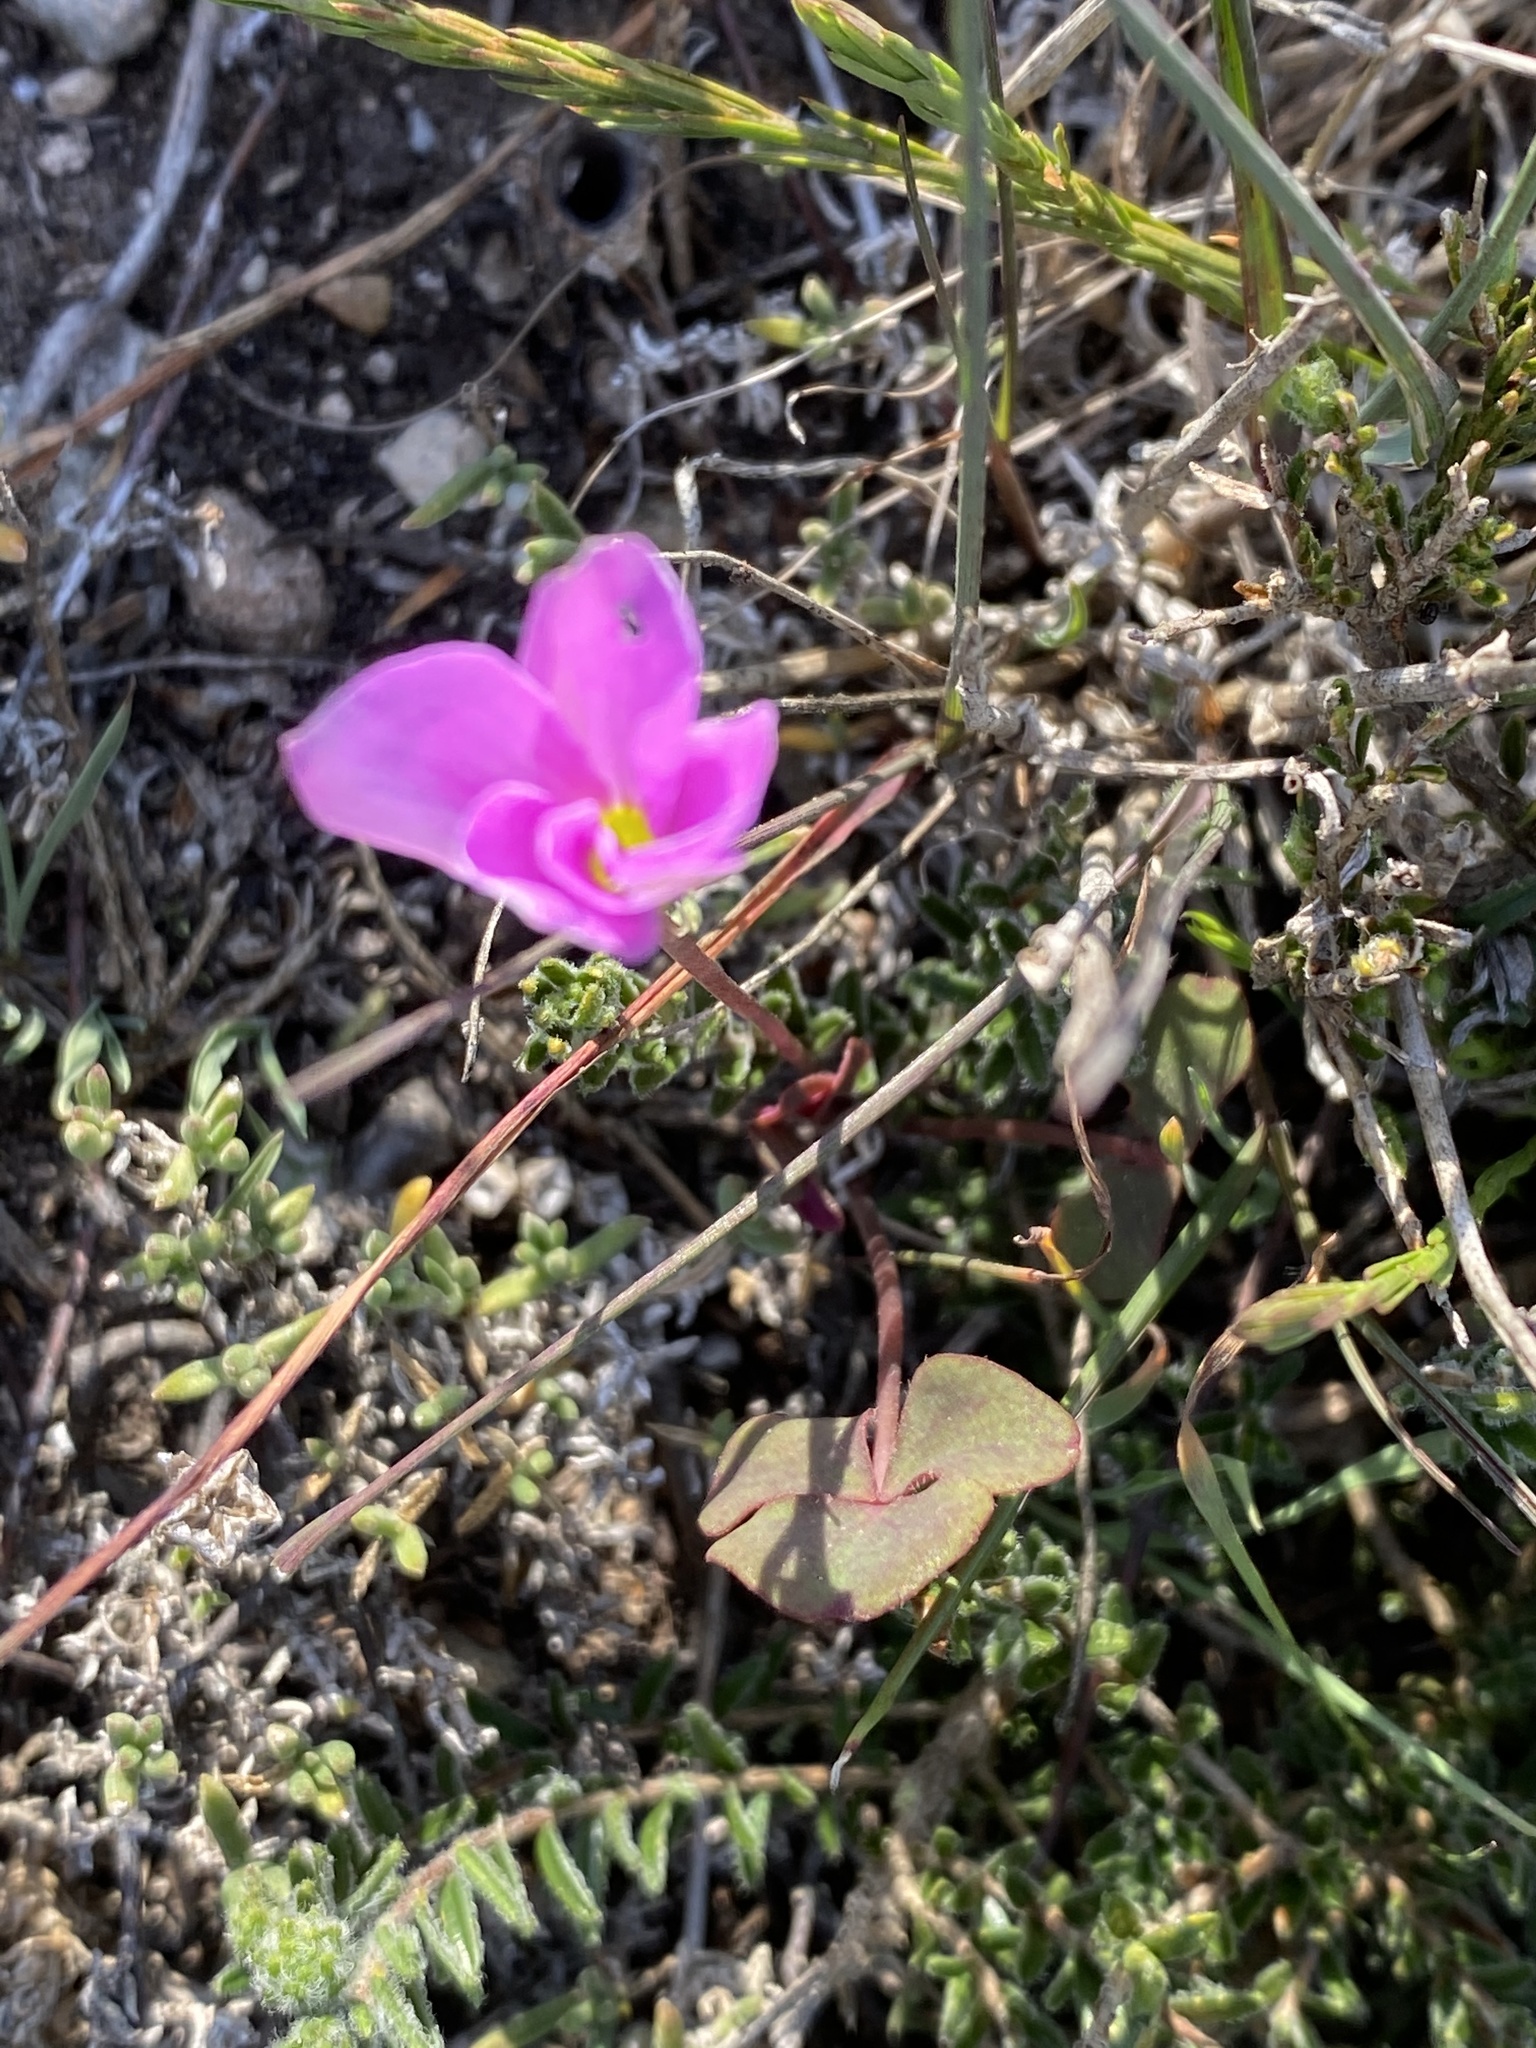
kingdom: Plantae
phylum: Tracheophyta
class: Magnoliopsida
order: Oxalidales
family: Oxalidaceae
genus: Oxalis
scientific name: Oxalis depressa
